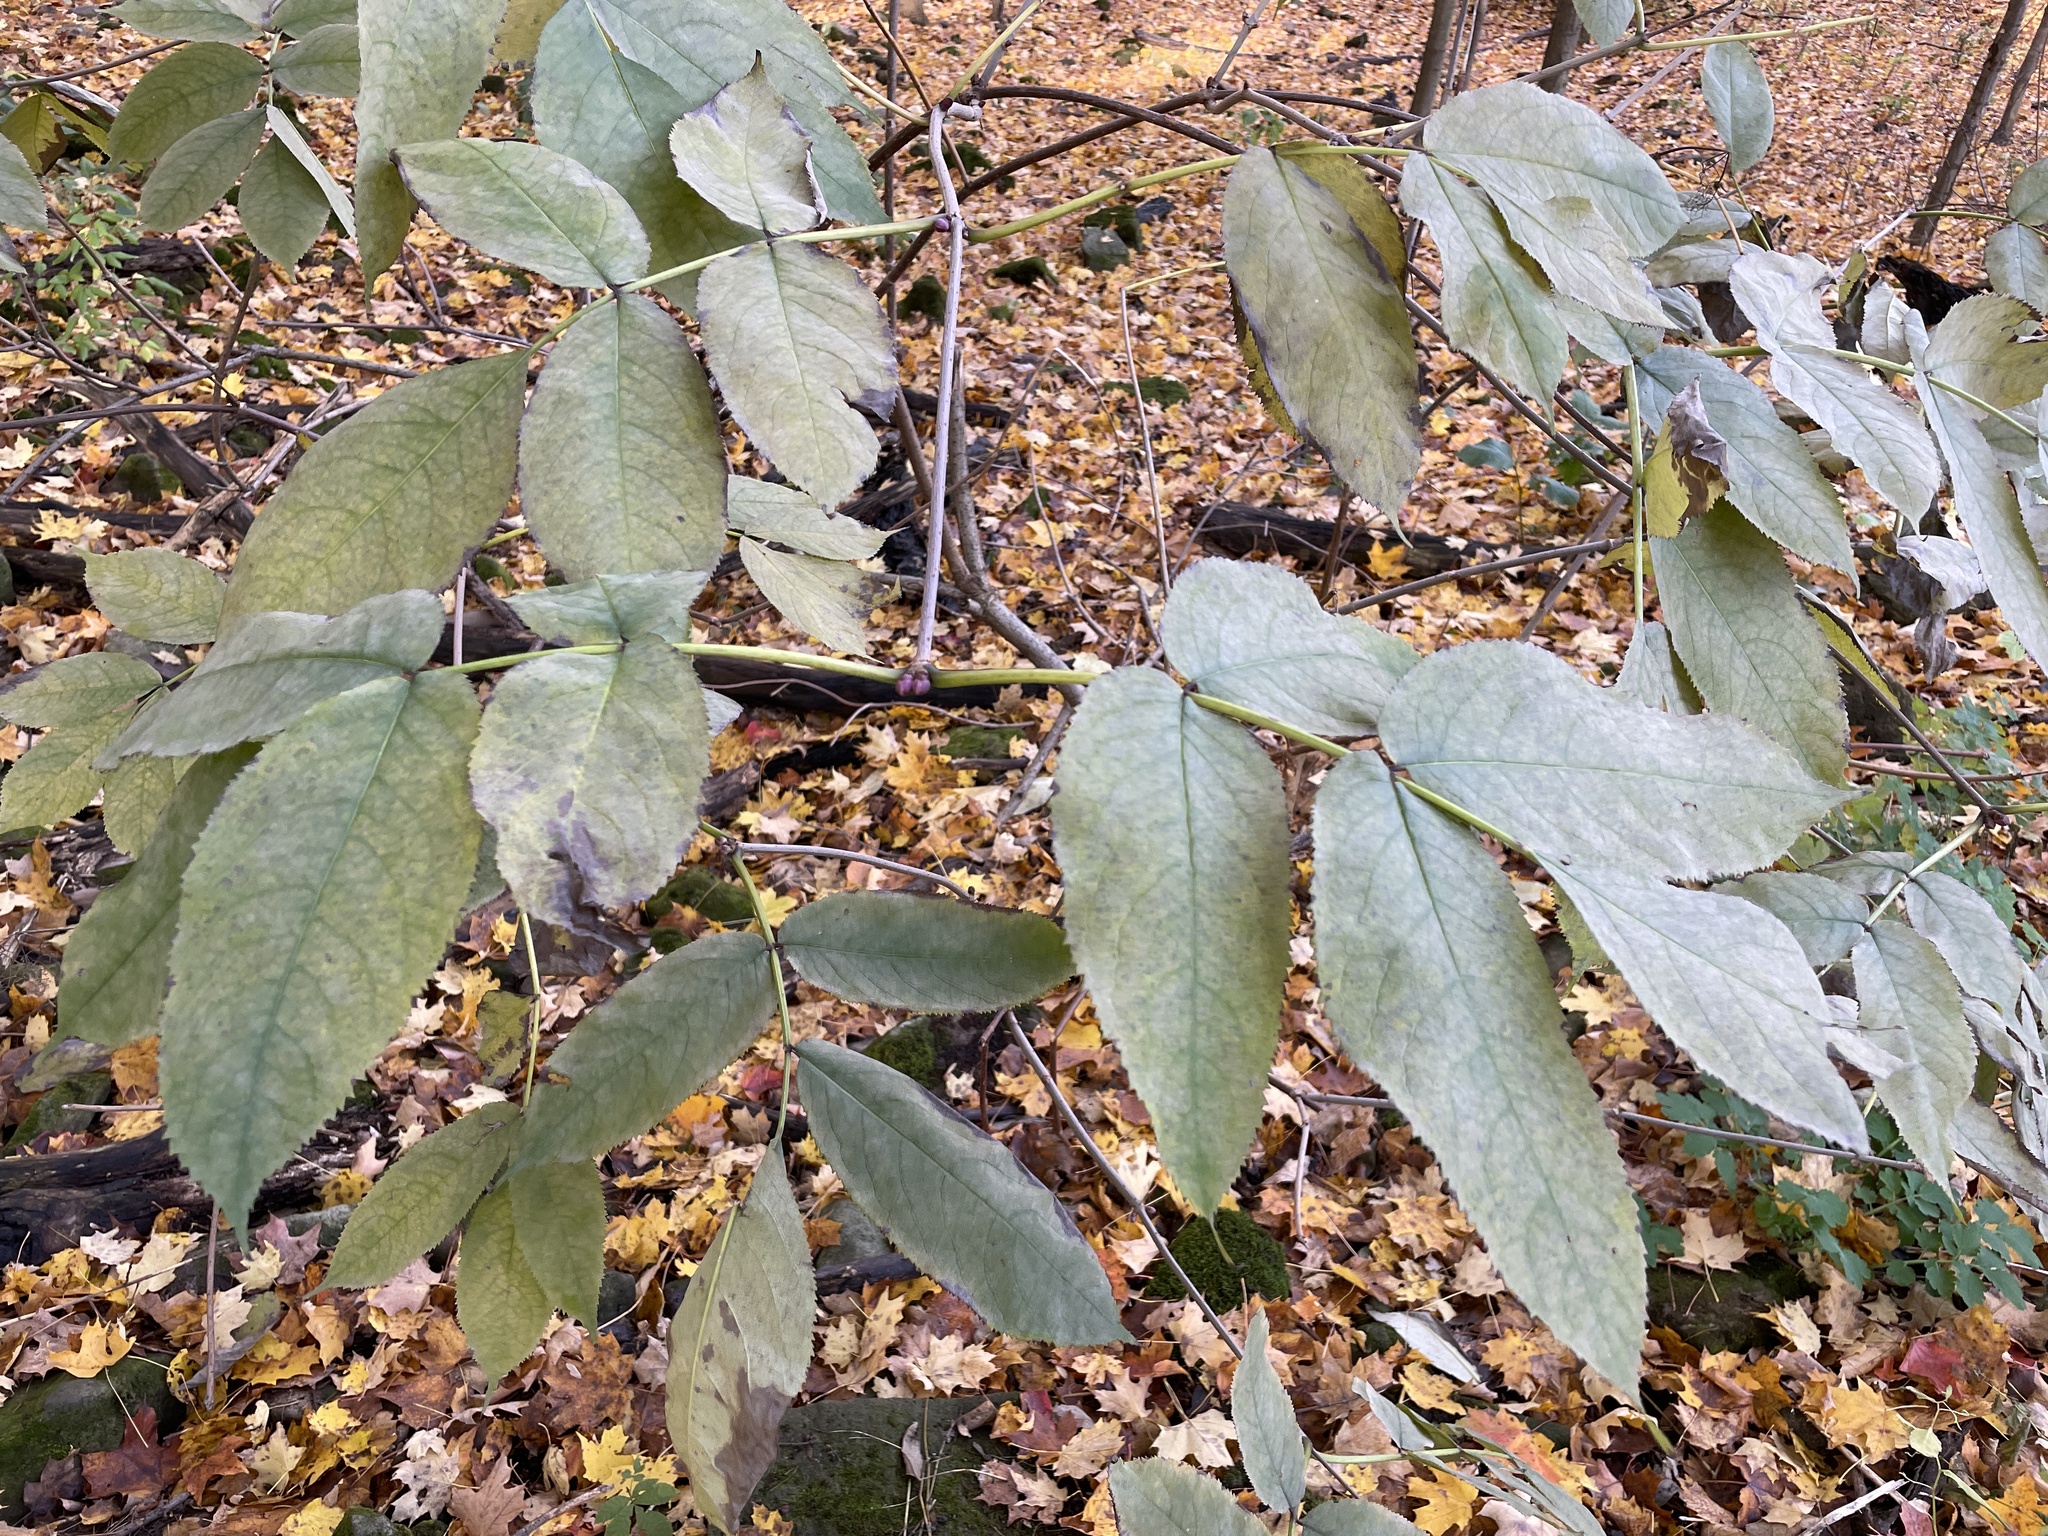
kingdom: Plantae
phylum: Tracheophyta
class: Magnoliopsida
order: Dipsacales
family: Viburnaceae
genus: Sambucus
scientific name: Sambucus racemosa
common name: Red-berried elder
